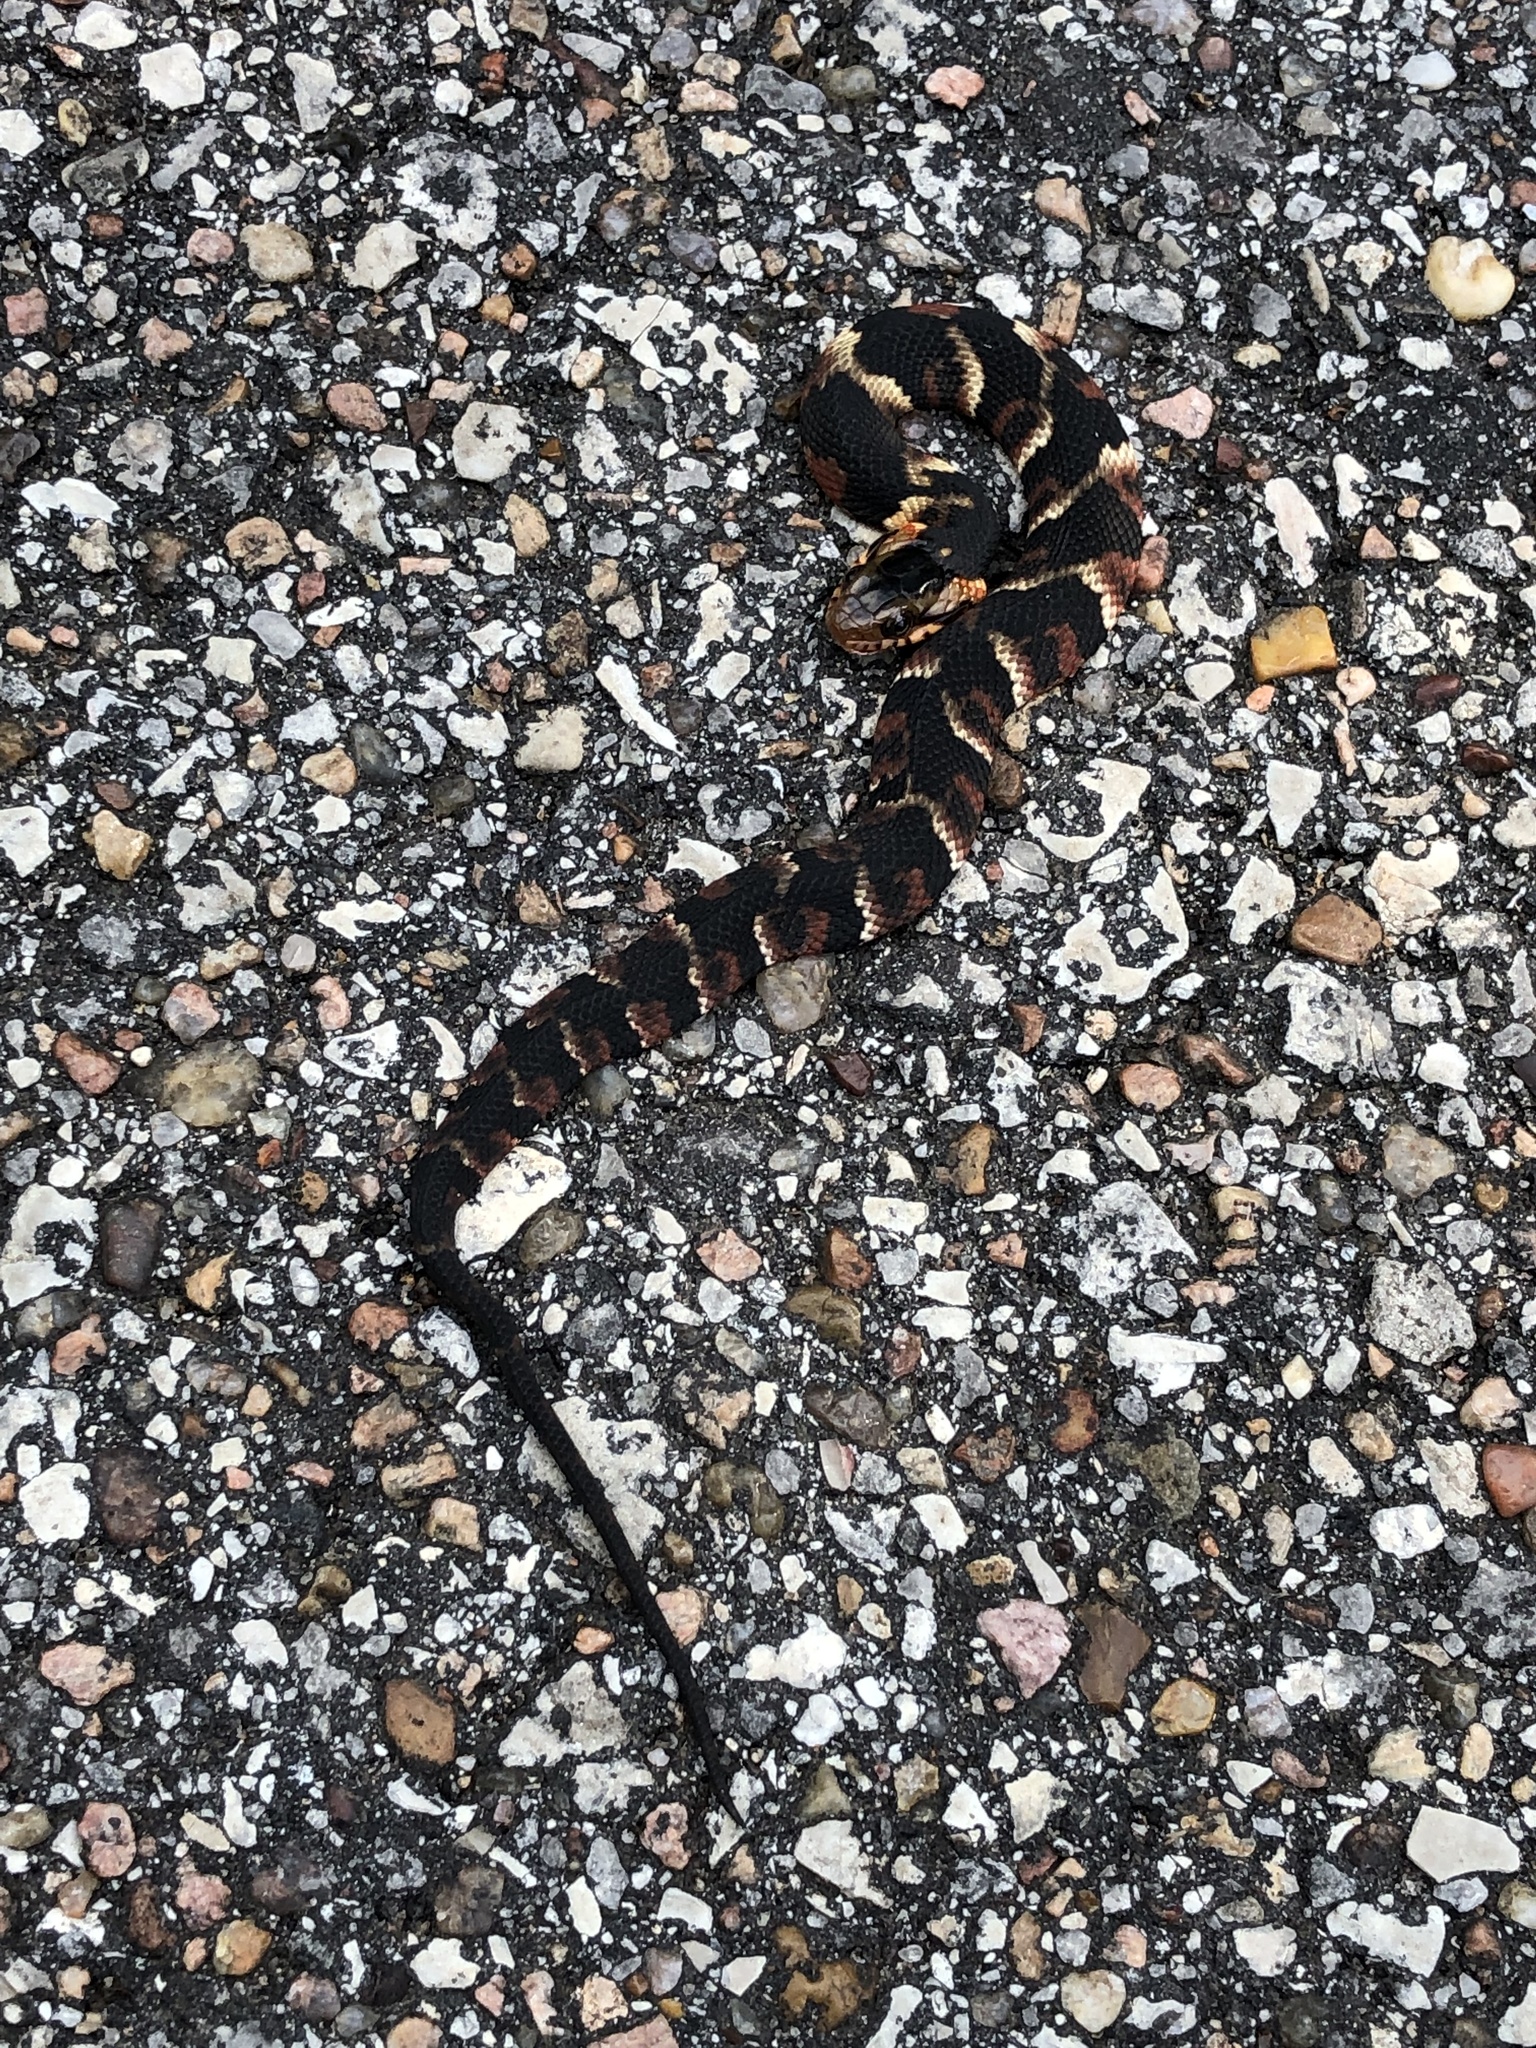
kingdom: Animalia
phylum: Chordata
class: Squamata
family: Colubridae
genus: Nerodia
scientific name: Nerodia fasciata
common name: Southern water snake
